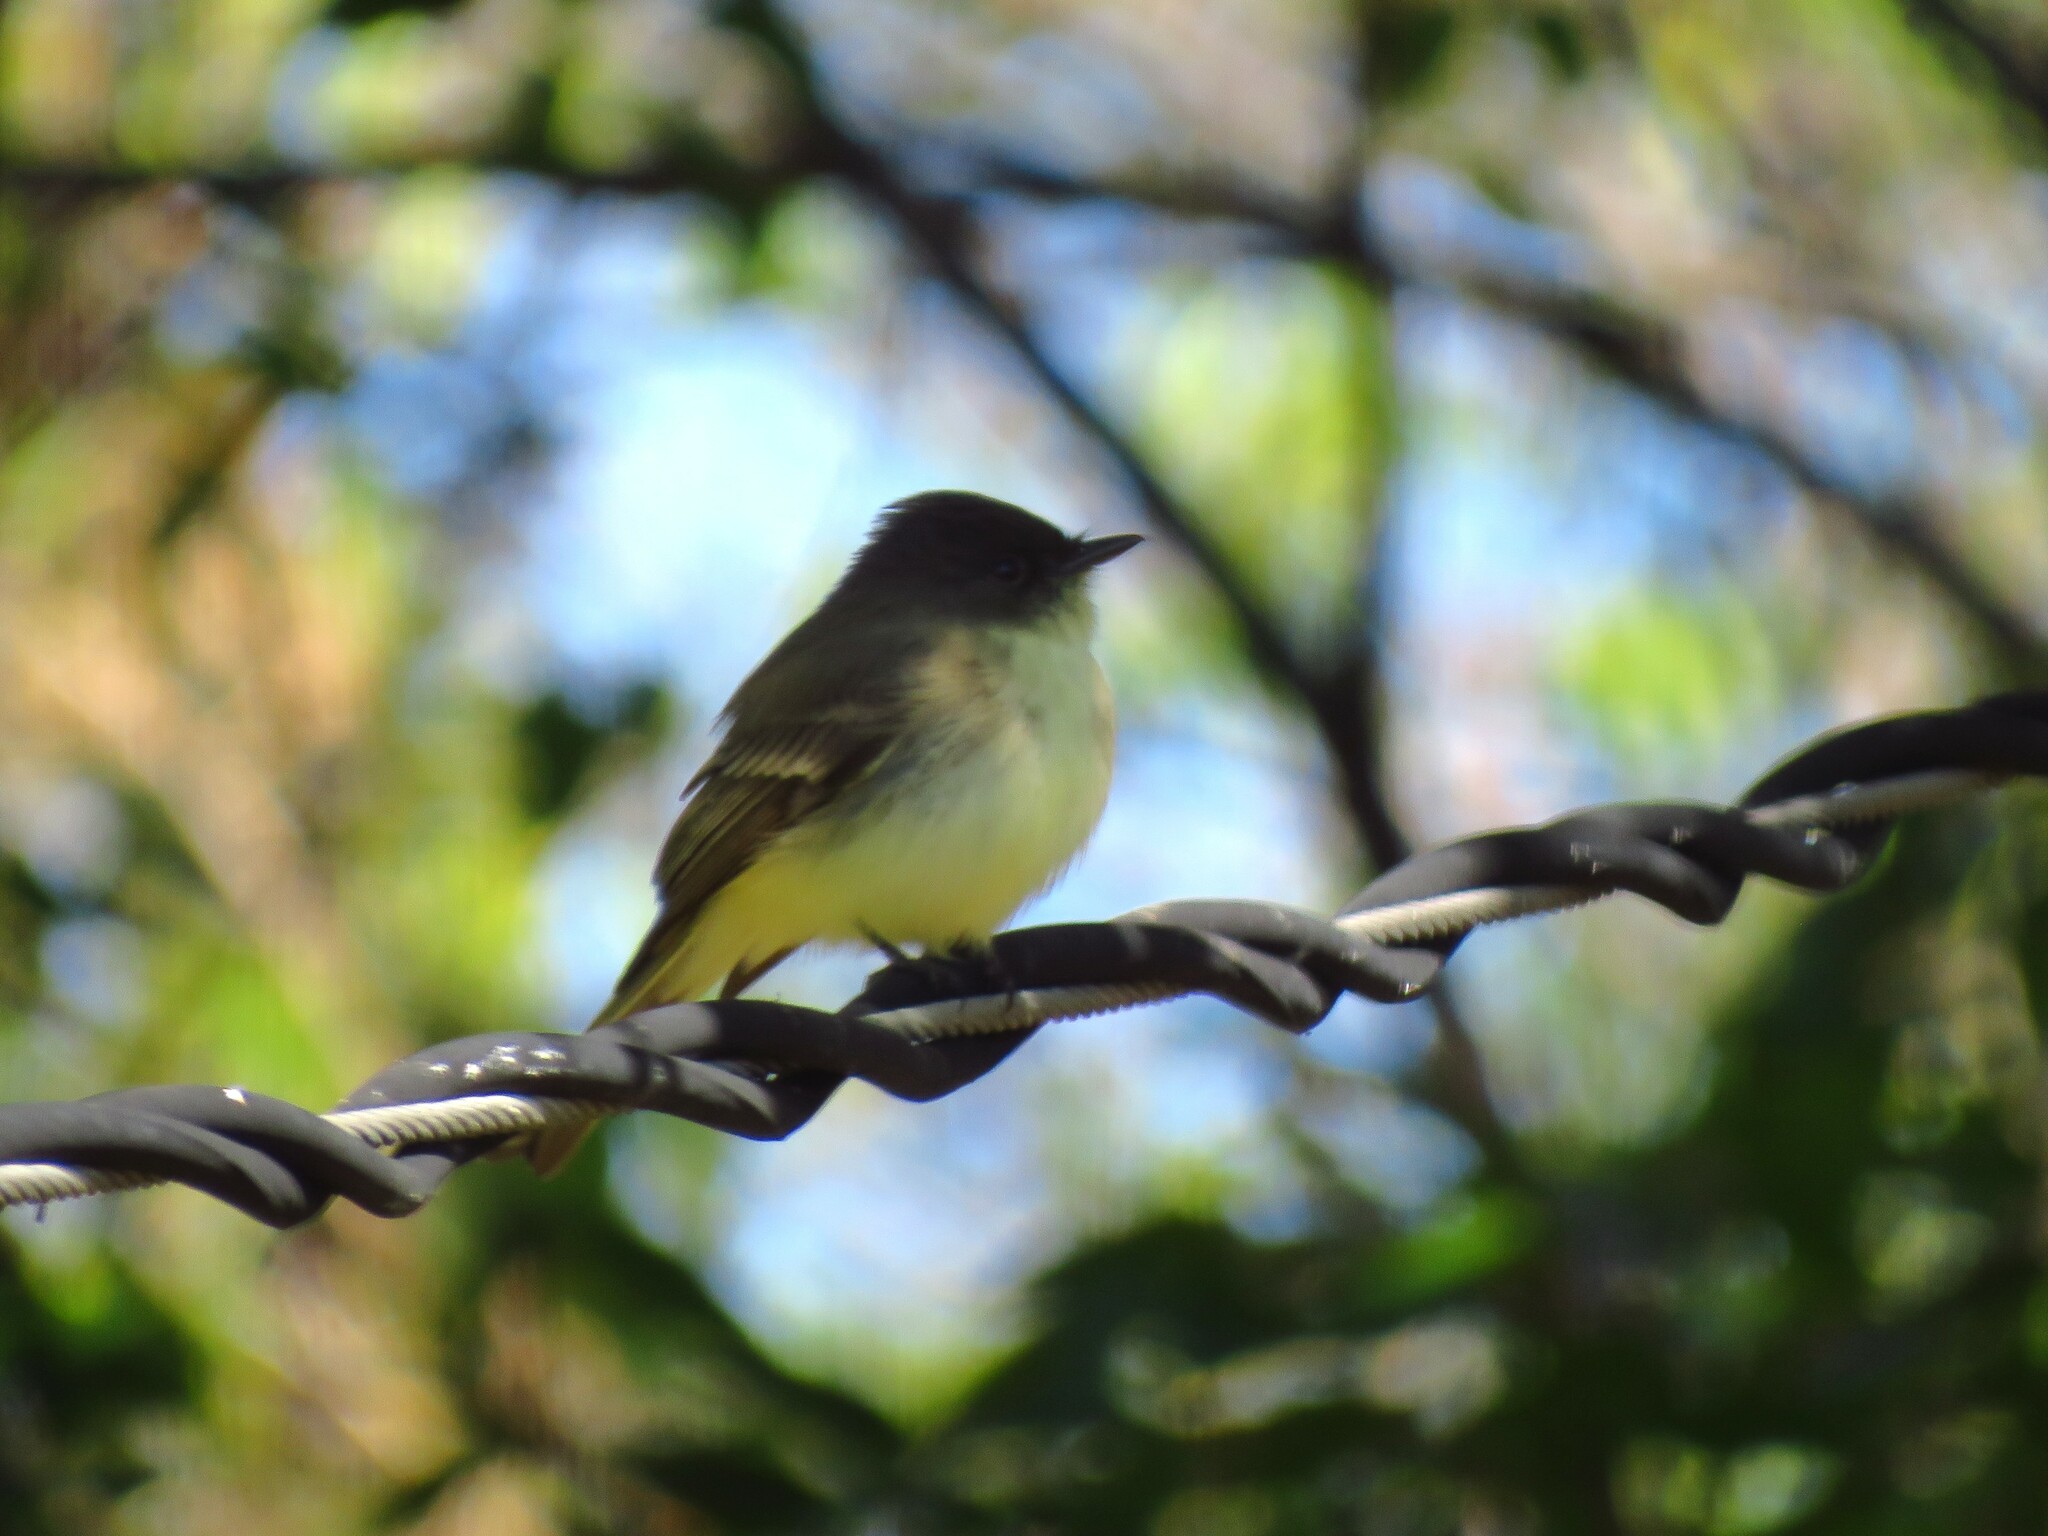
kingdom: Animalia
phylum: Chordata
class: Aves
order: Passeriformes
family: Tyrannidae
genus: Sayornis
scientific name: Sayornis phoebe
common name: Eastern phoebe
